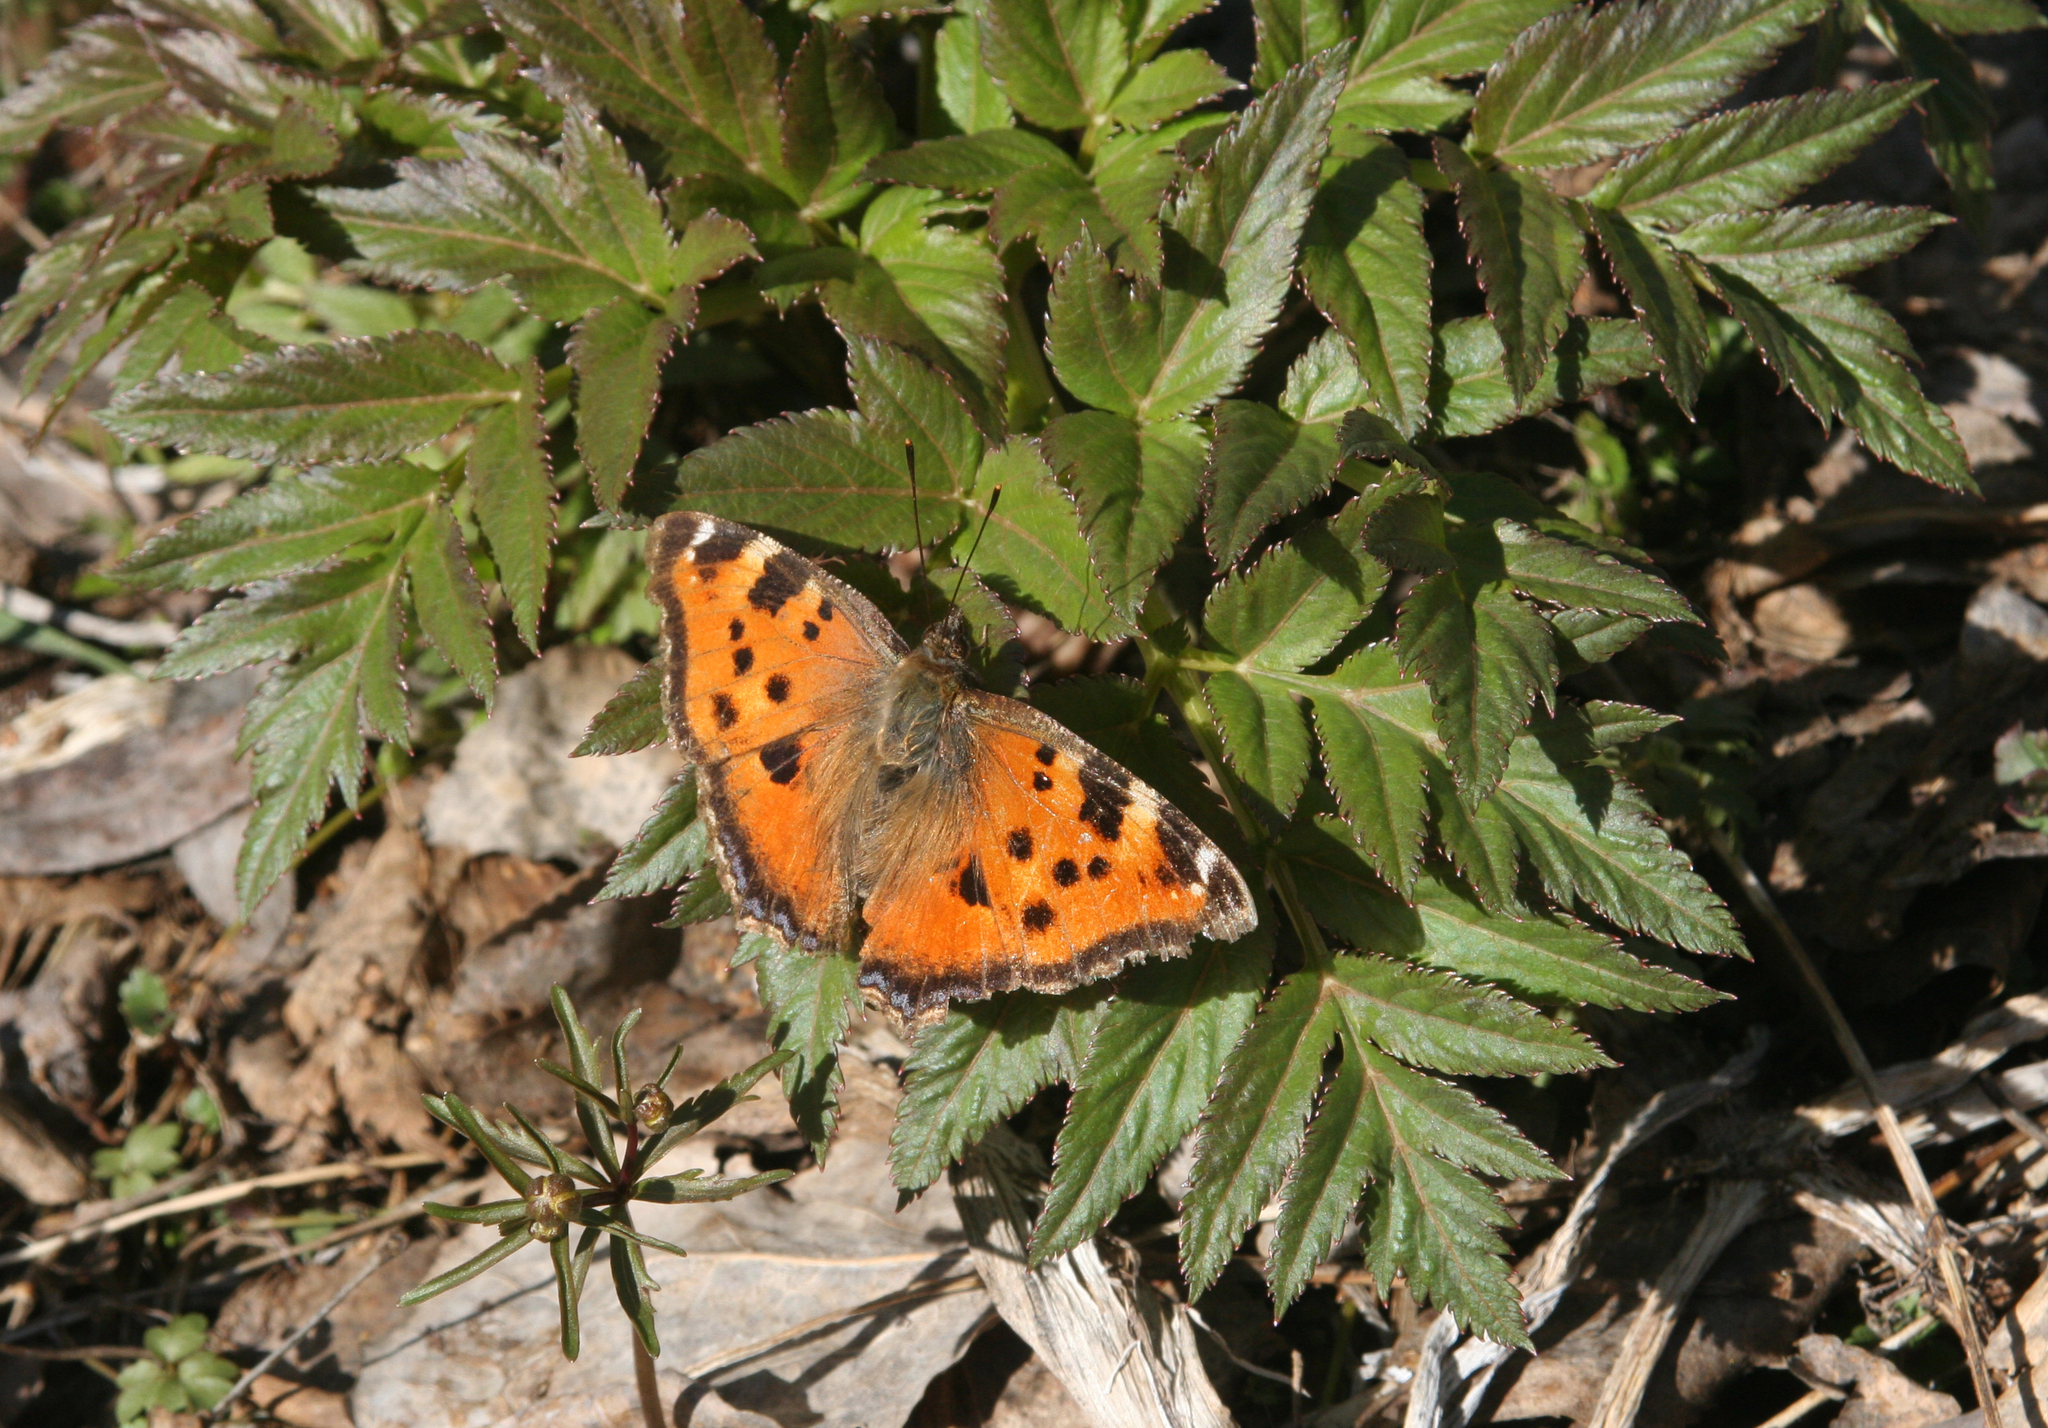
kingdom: Animalia
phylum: Arthropoda
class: Insecta
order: Lepidoptera
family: Nymphalidae
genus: Nymphalis
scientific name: Nymphalis xanthomelas
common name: Scarce tortoiseshell
